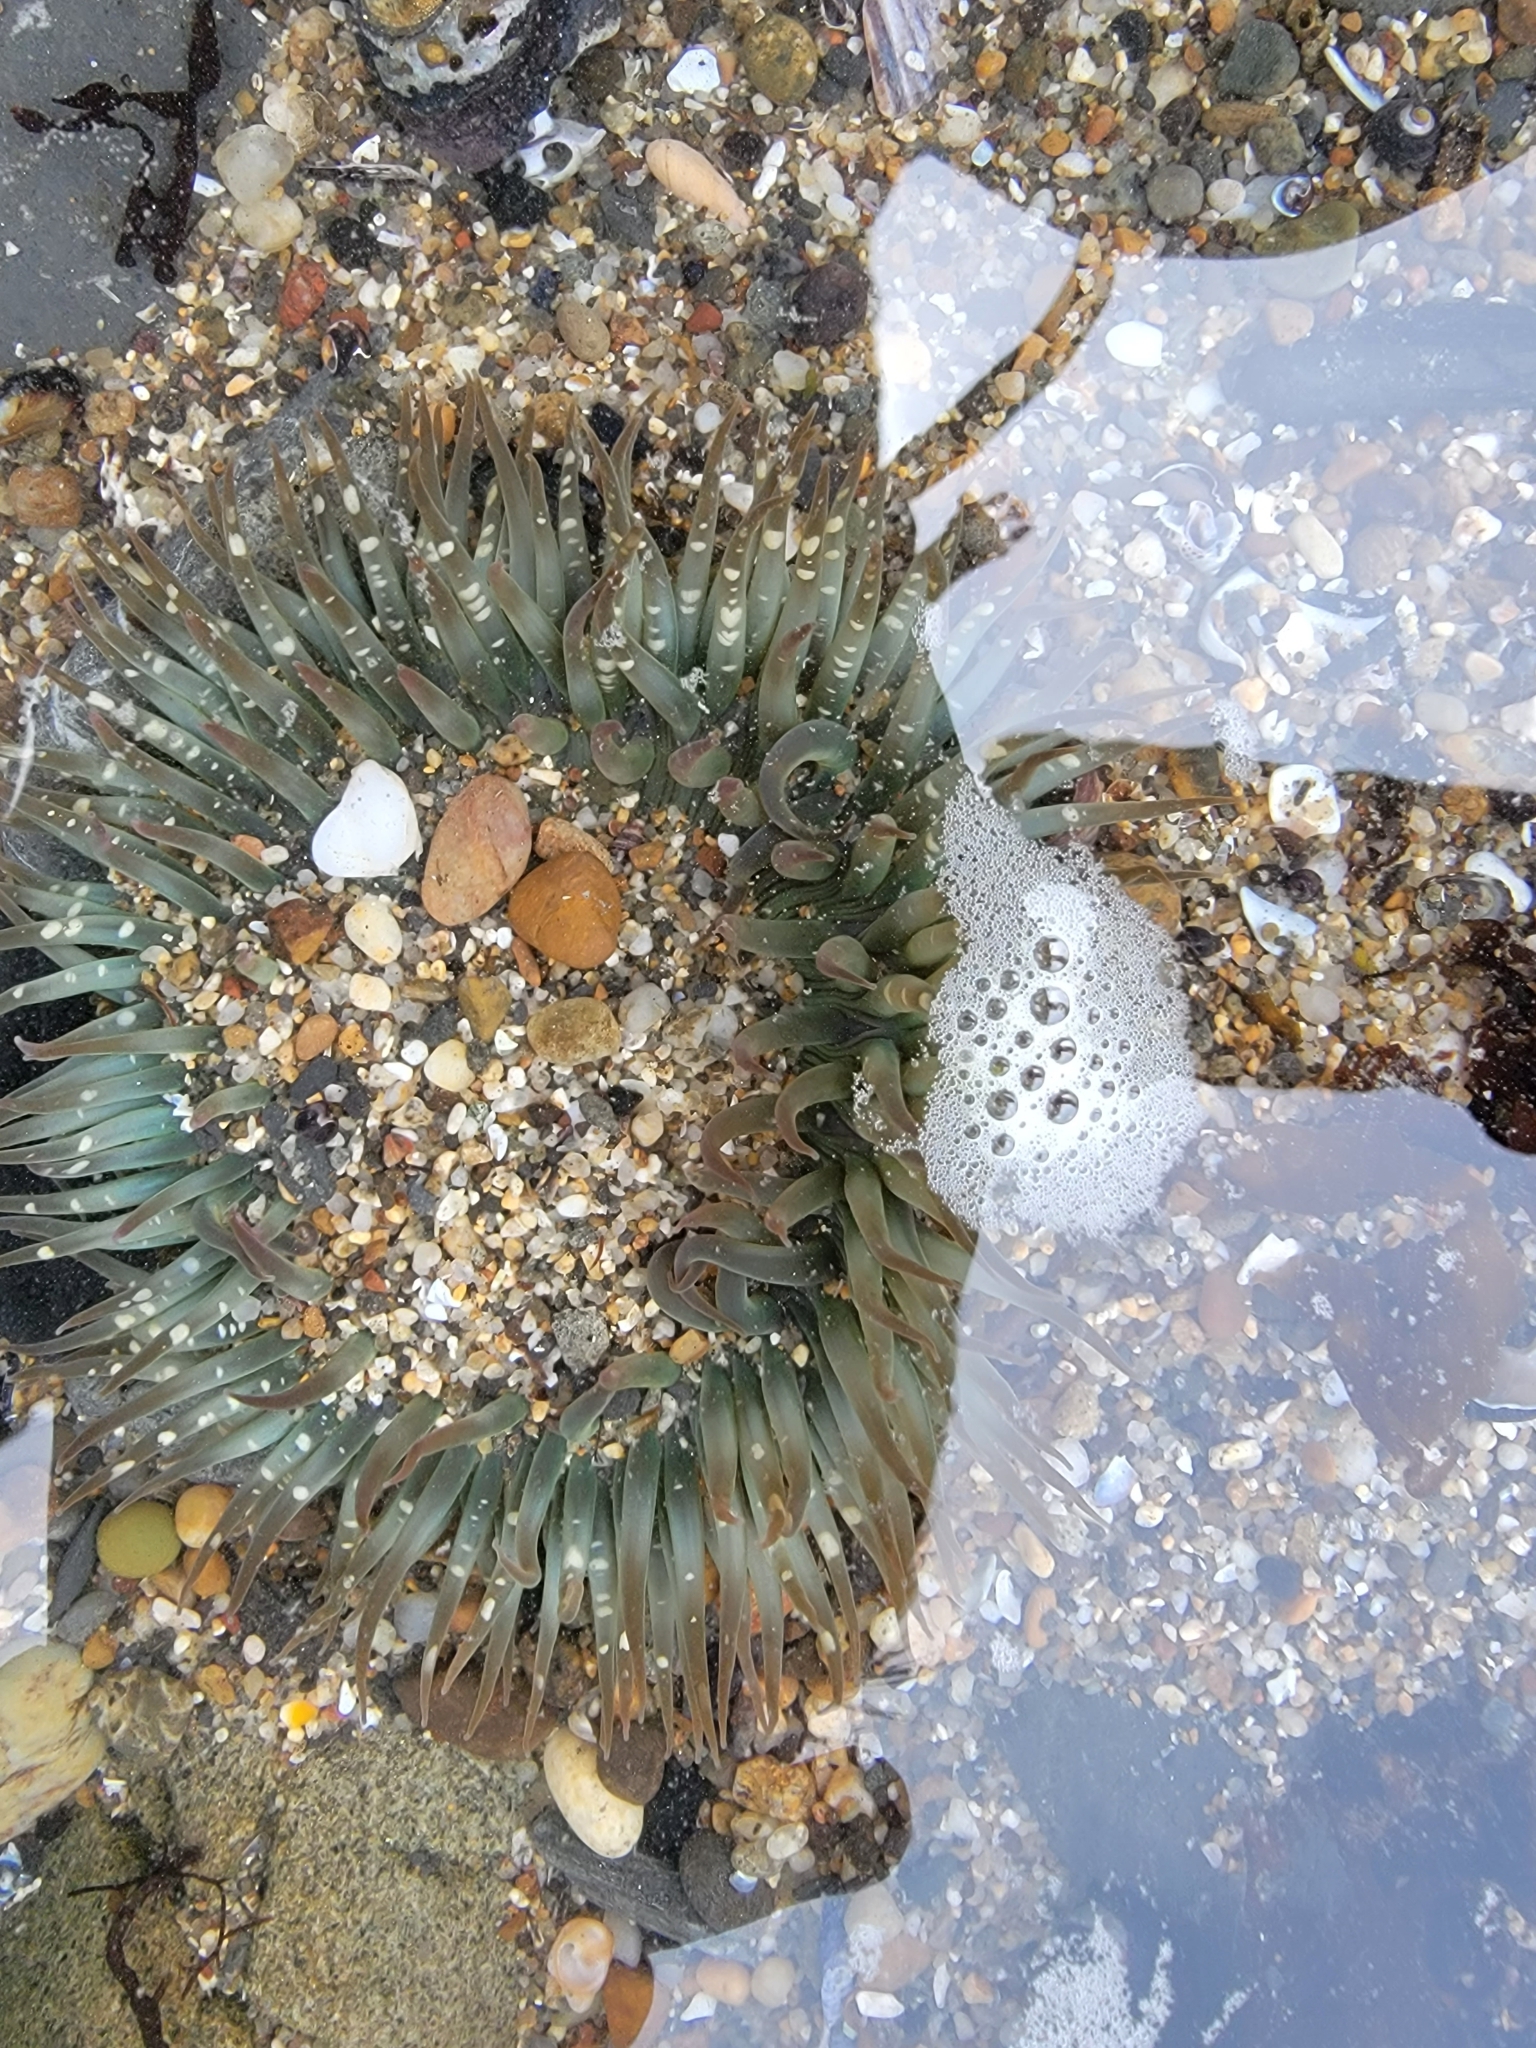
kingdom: Animalia
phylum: Cnidaria
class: Anthozoa
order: Actiniaria
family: Actiniidae
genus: Anthopleura
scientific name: Anthopleura sola
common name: Sun anemone
